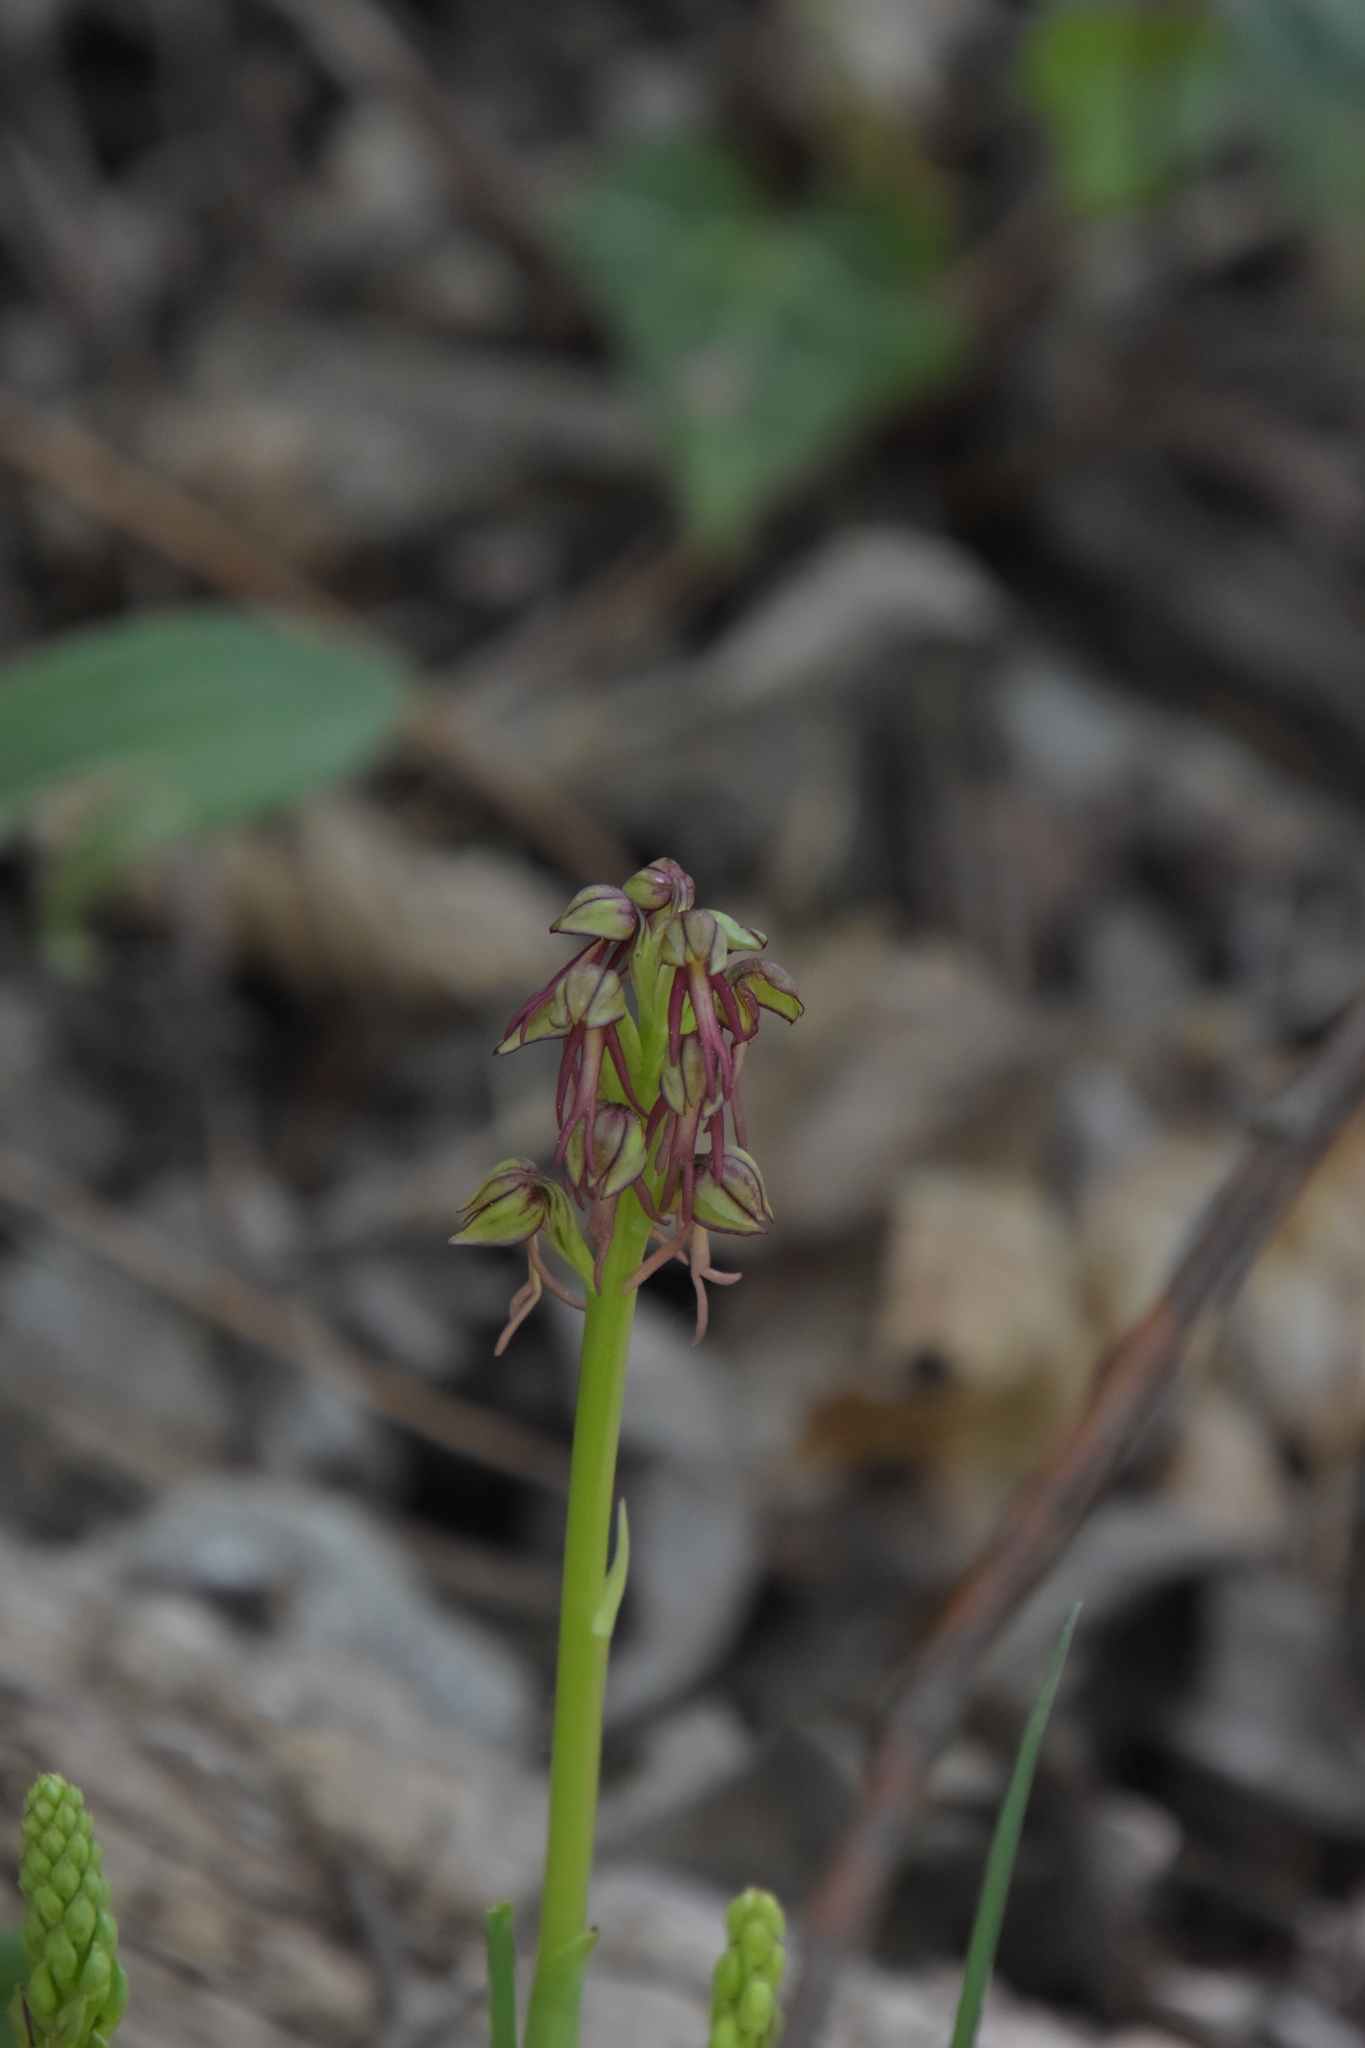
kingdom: Plantae
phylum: Tracheophyta
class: Liliopsida
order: Asparagales
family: Orchidaceae
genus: Orchis
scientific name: Orchis anthropophora
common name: Man orchid
